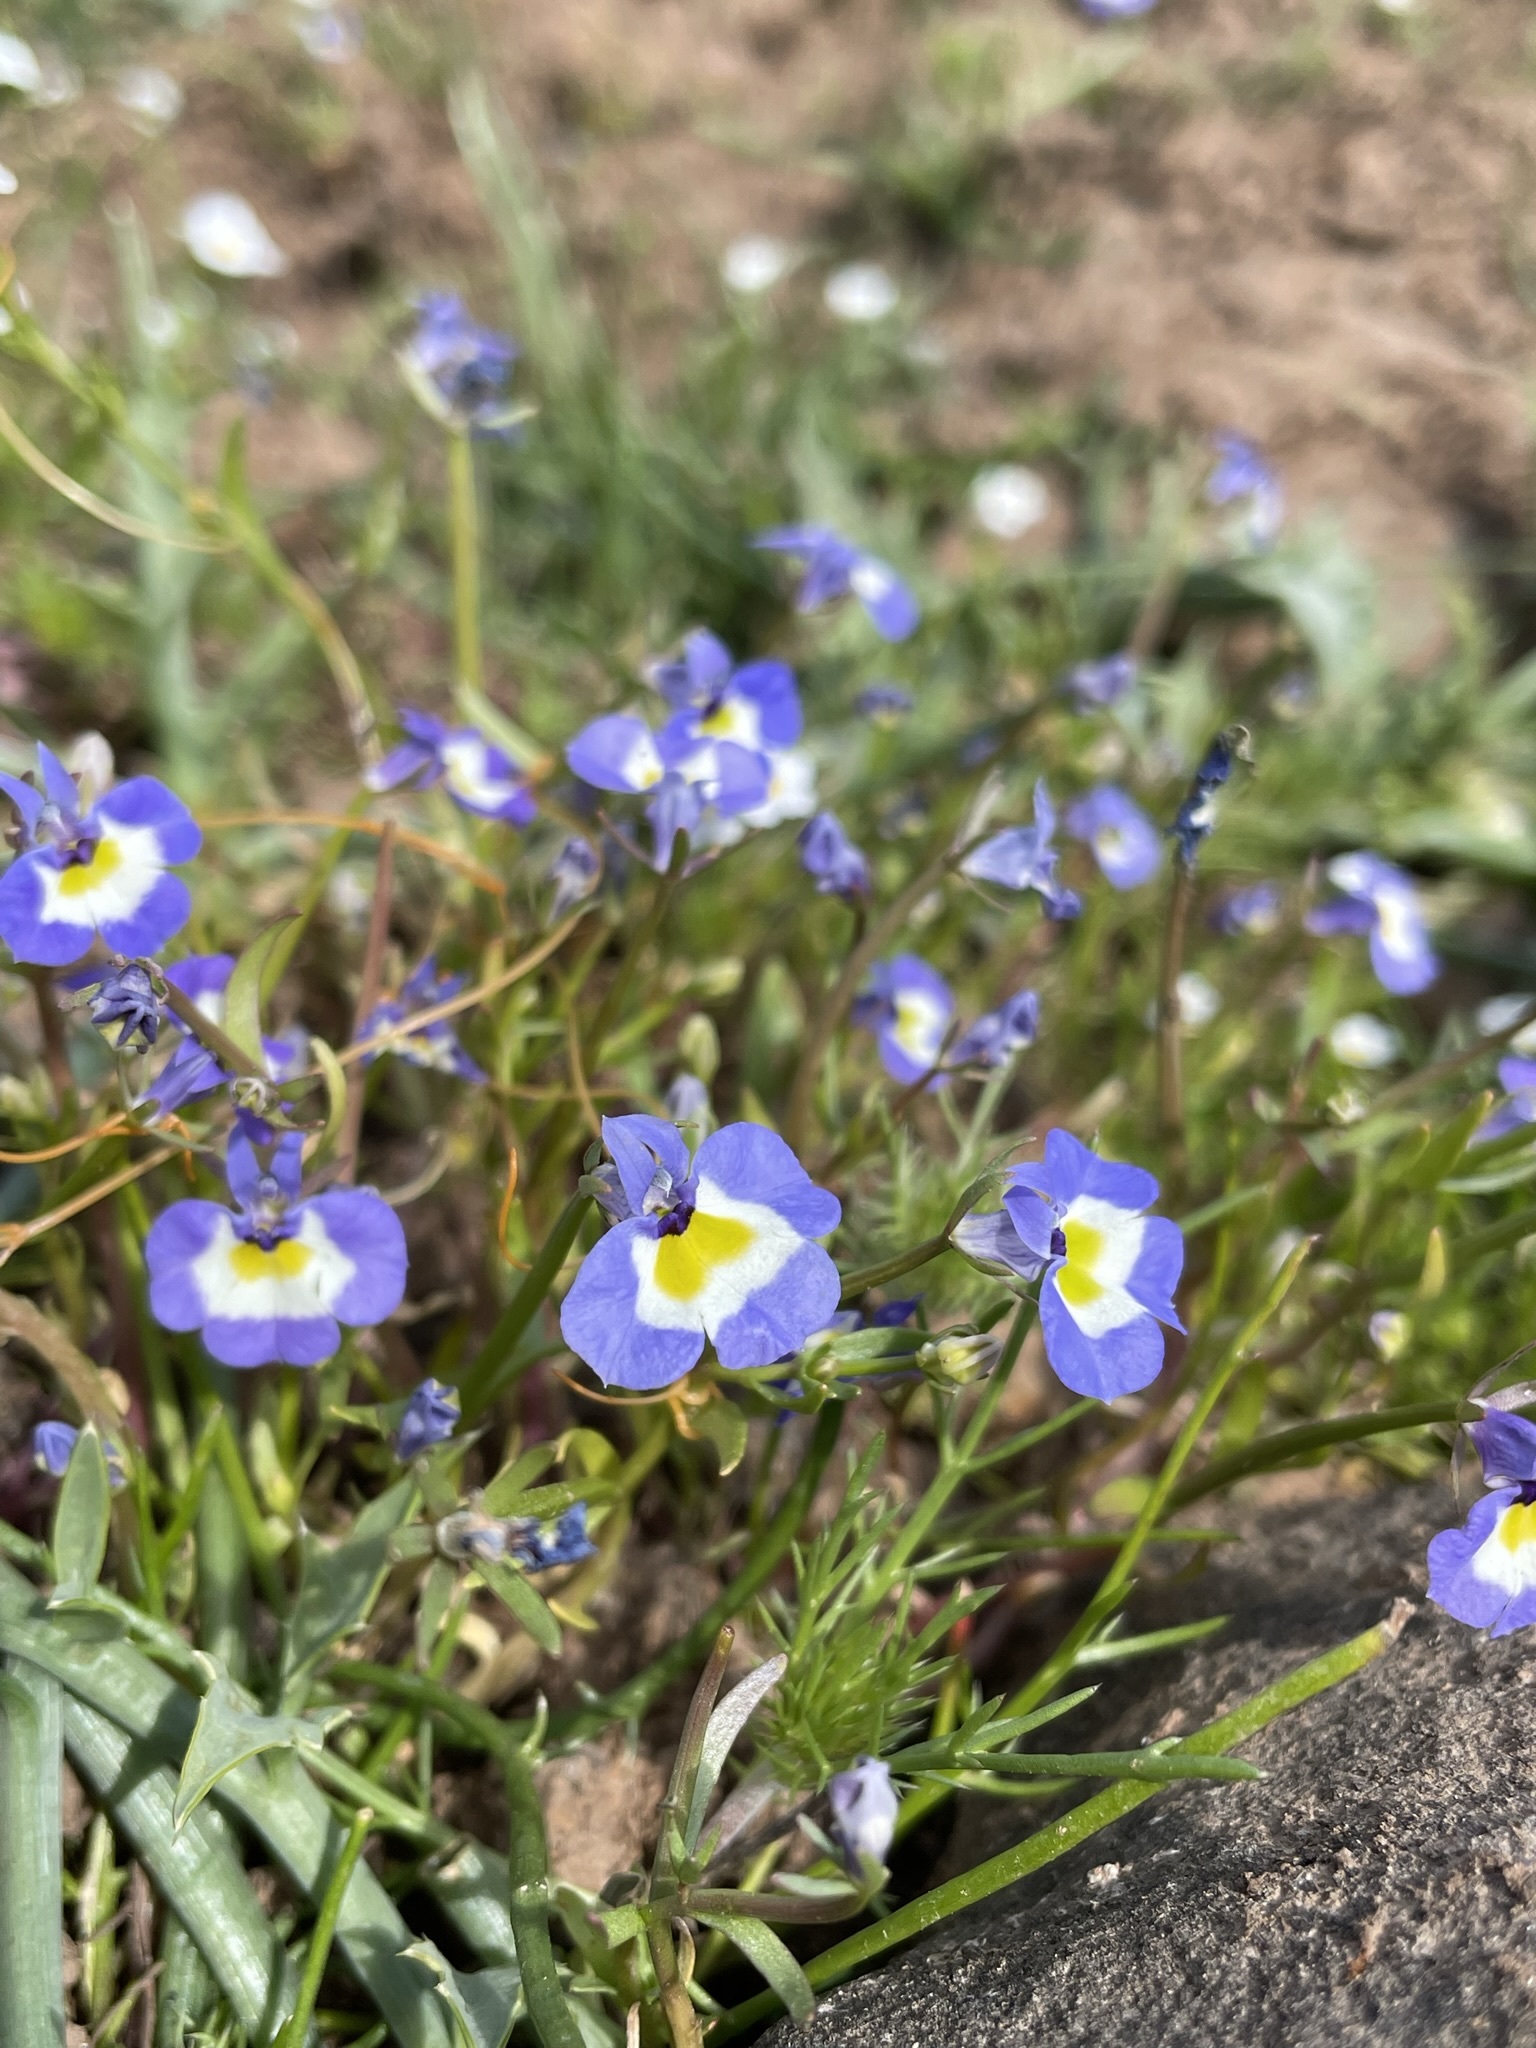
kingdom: Plantae
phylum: Tracheophyta
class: Magnoliopsida
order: Asterales
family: Campanulaceae
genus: Downingia
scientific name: Downingia bicornuta
